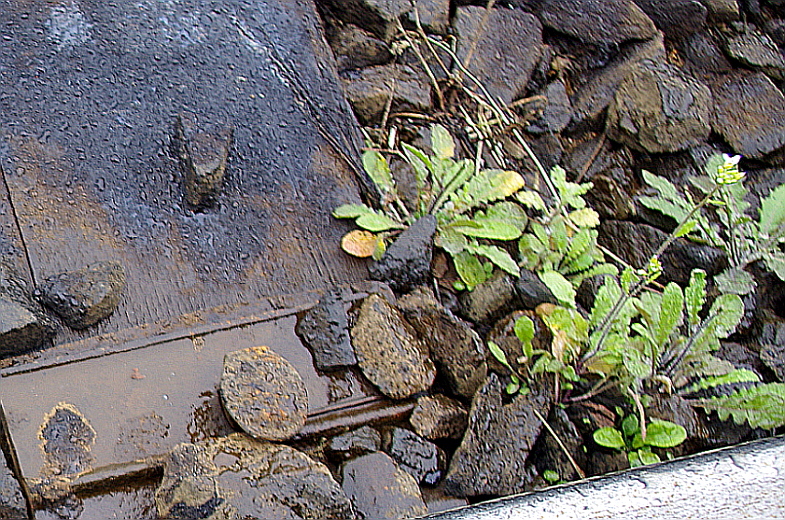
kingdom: Plantae
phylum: Tracheophyta
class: Magnoliopsida
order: Brassicales
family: Brassicaceae
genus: Arabidopsis
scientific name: Arabidopsis arenosa
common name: Sand rock-cress
